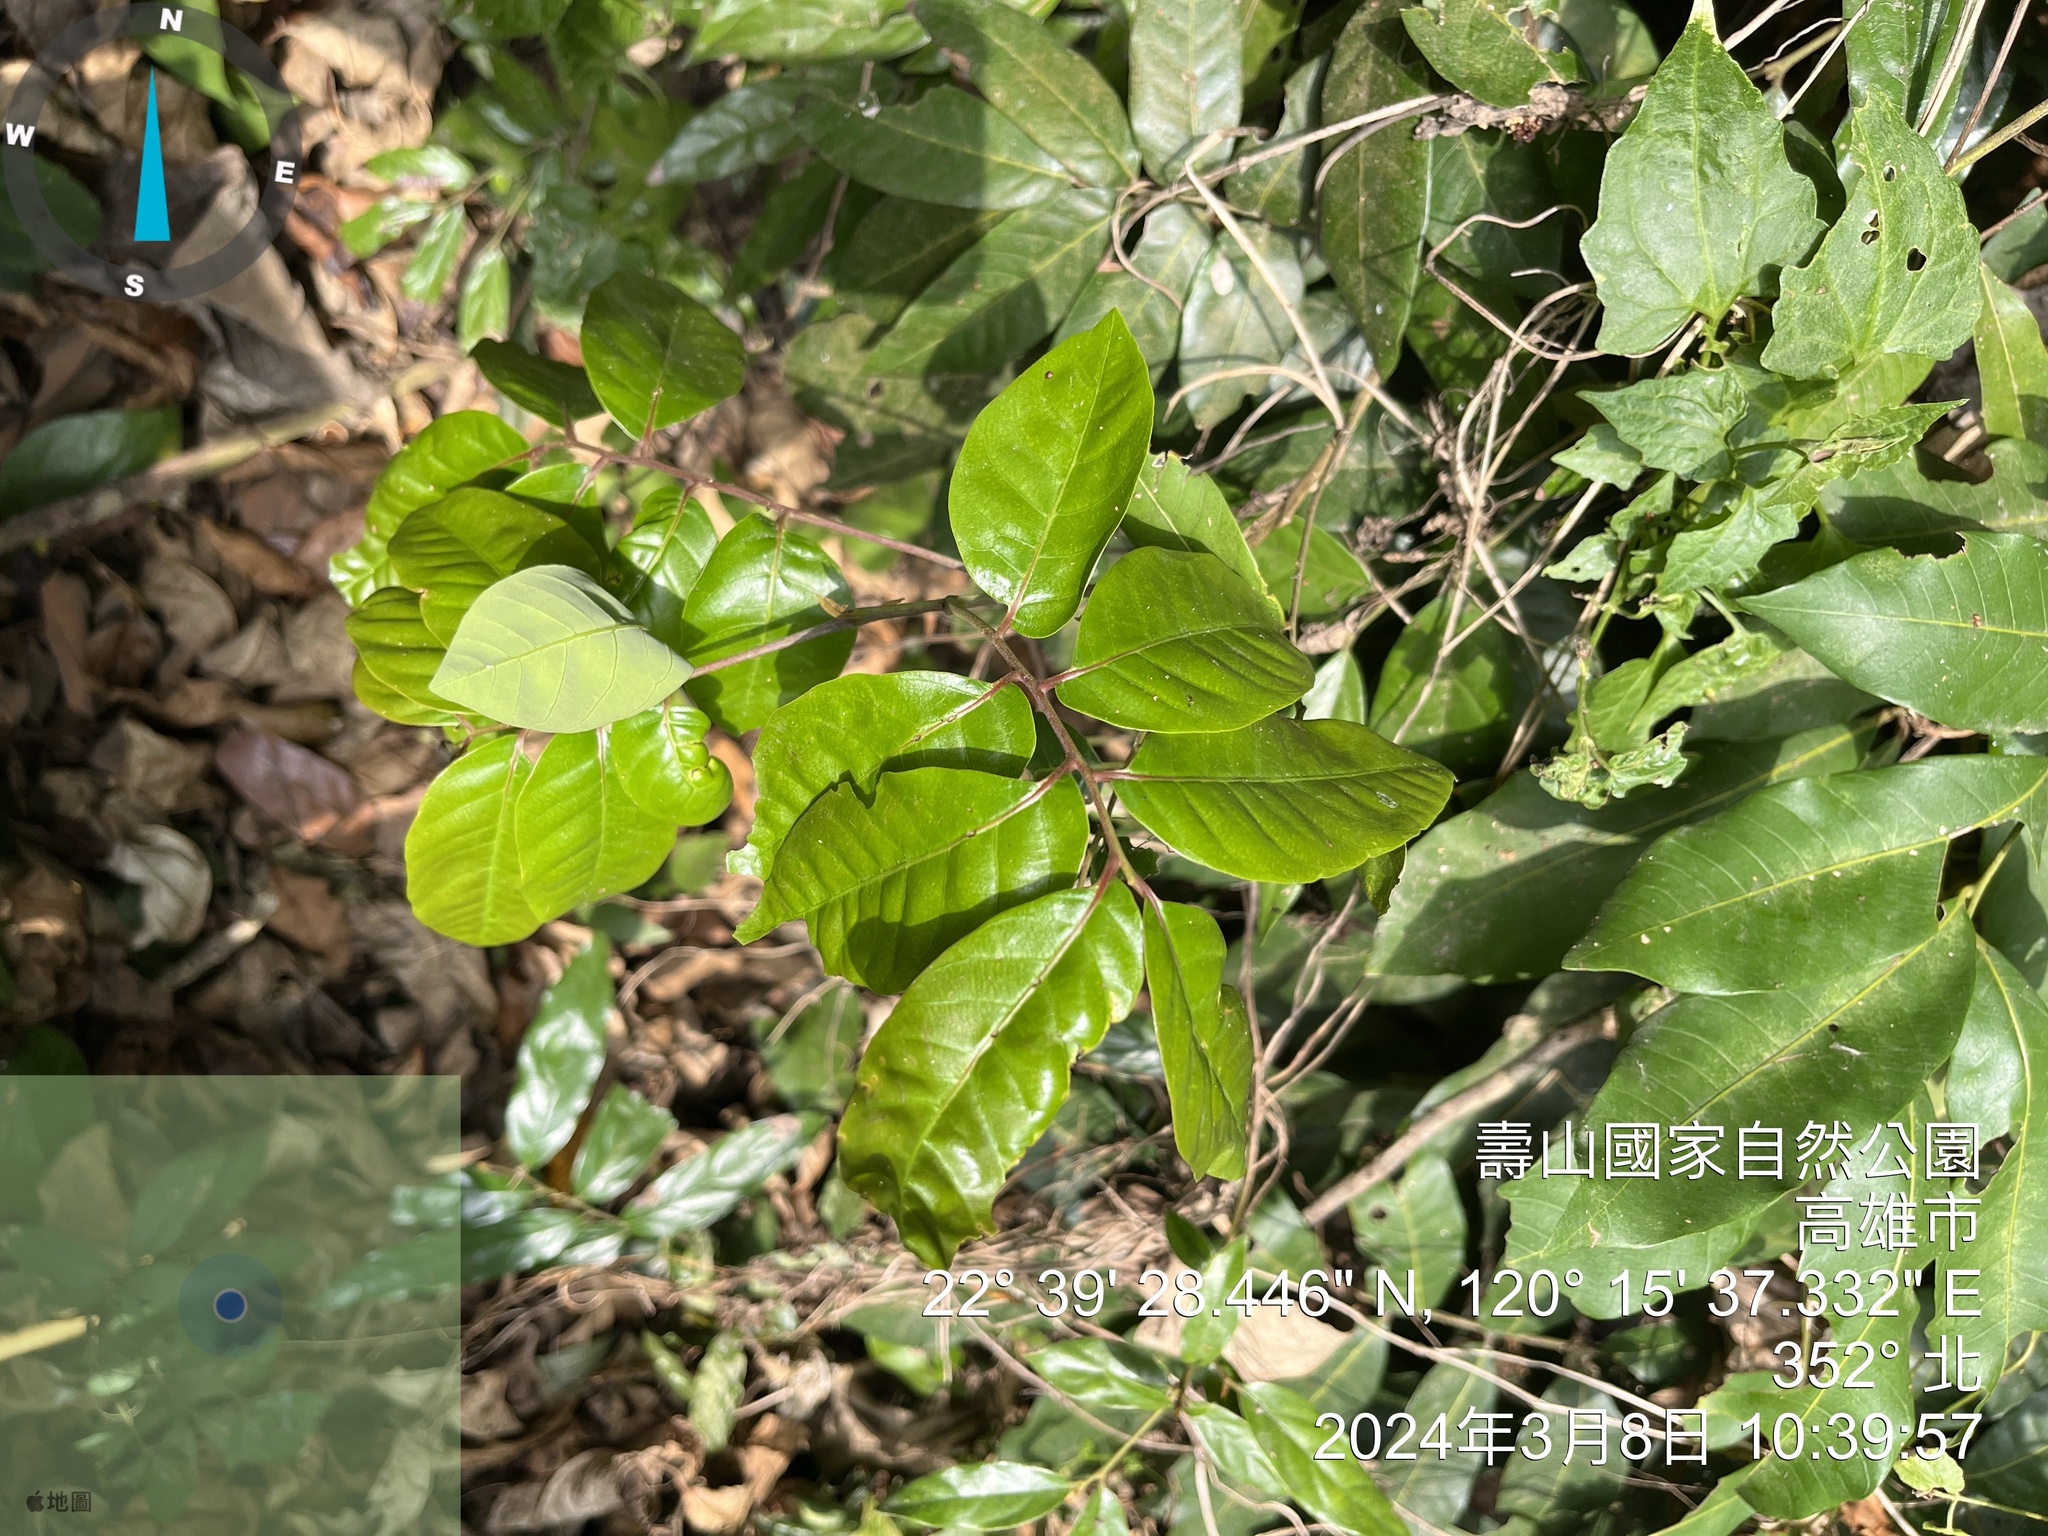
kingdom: Plantae
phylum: Tracheophyta
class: Magnoliopsida
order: Malpighiales
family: Phyllanthaceae
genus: Antidesma
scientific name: Antidesma montanum
